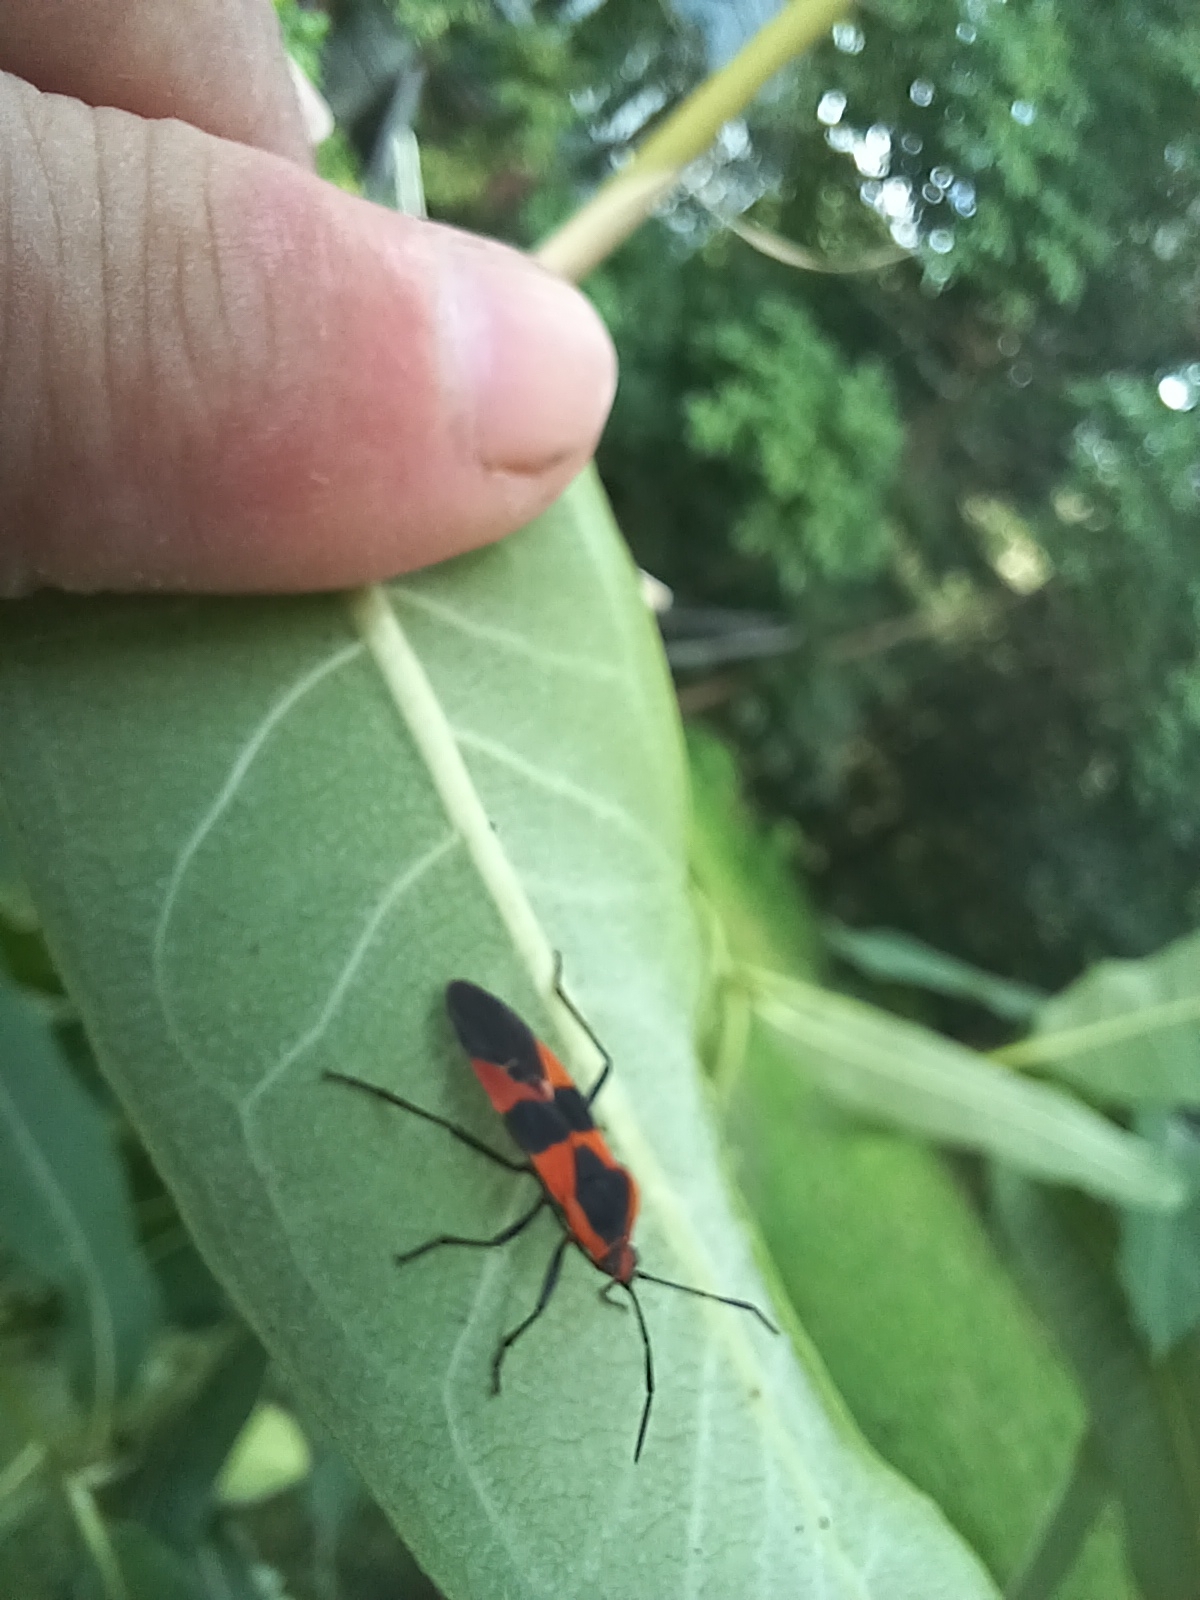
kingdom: Animalia
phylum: Arthropoda
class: Insecta
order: Hemiptera
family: Lygaeidae
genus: Oncopeltus
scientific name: Oncopeltus fasciatus
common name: Large milkweed bug
